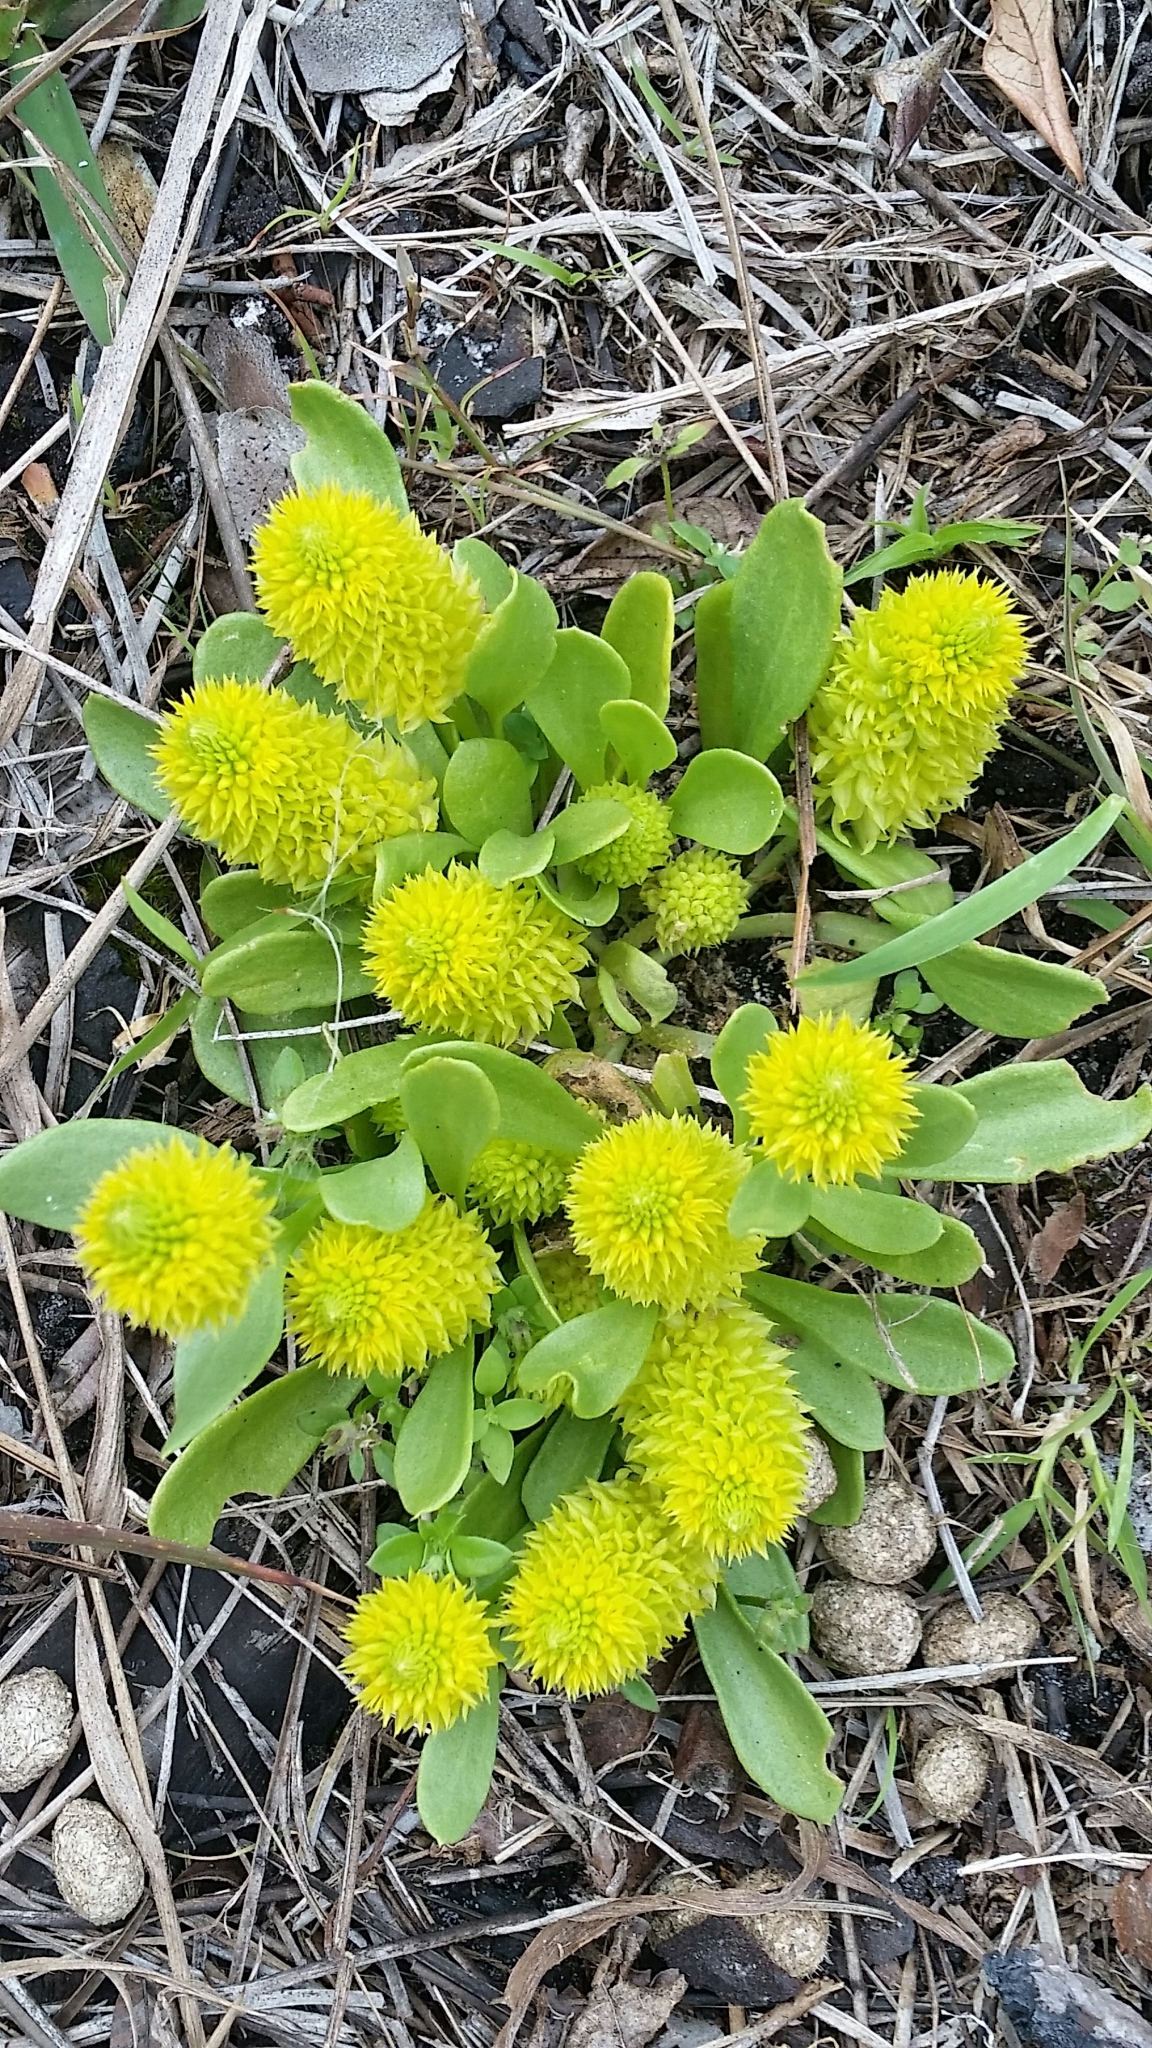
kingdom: Plantae
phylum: Tracheophyta
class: Magnoliopsida
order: Fabales
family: Polygalaceae
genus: Polygala
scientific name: Polygala nana
